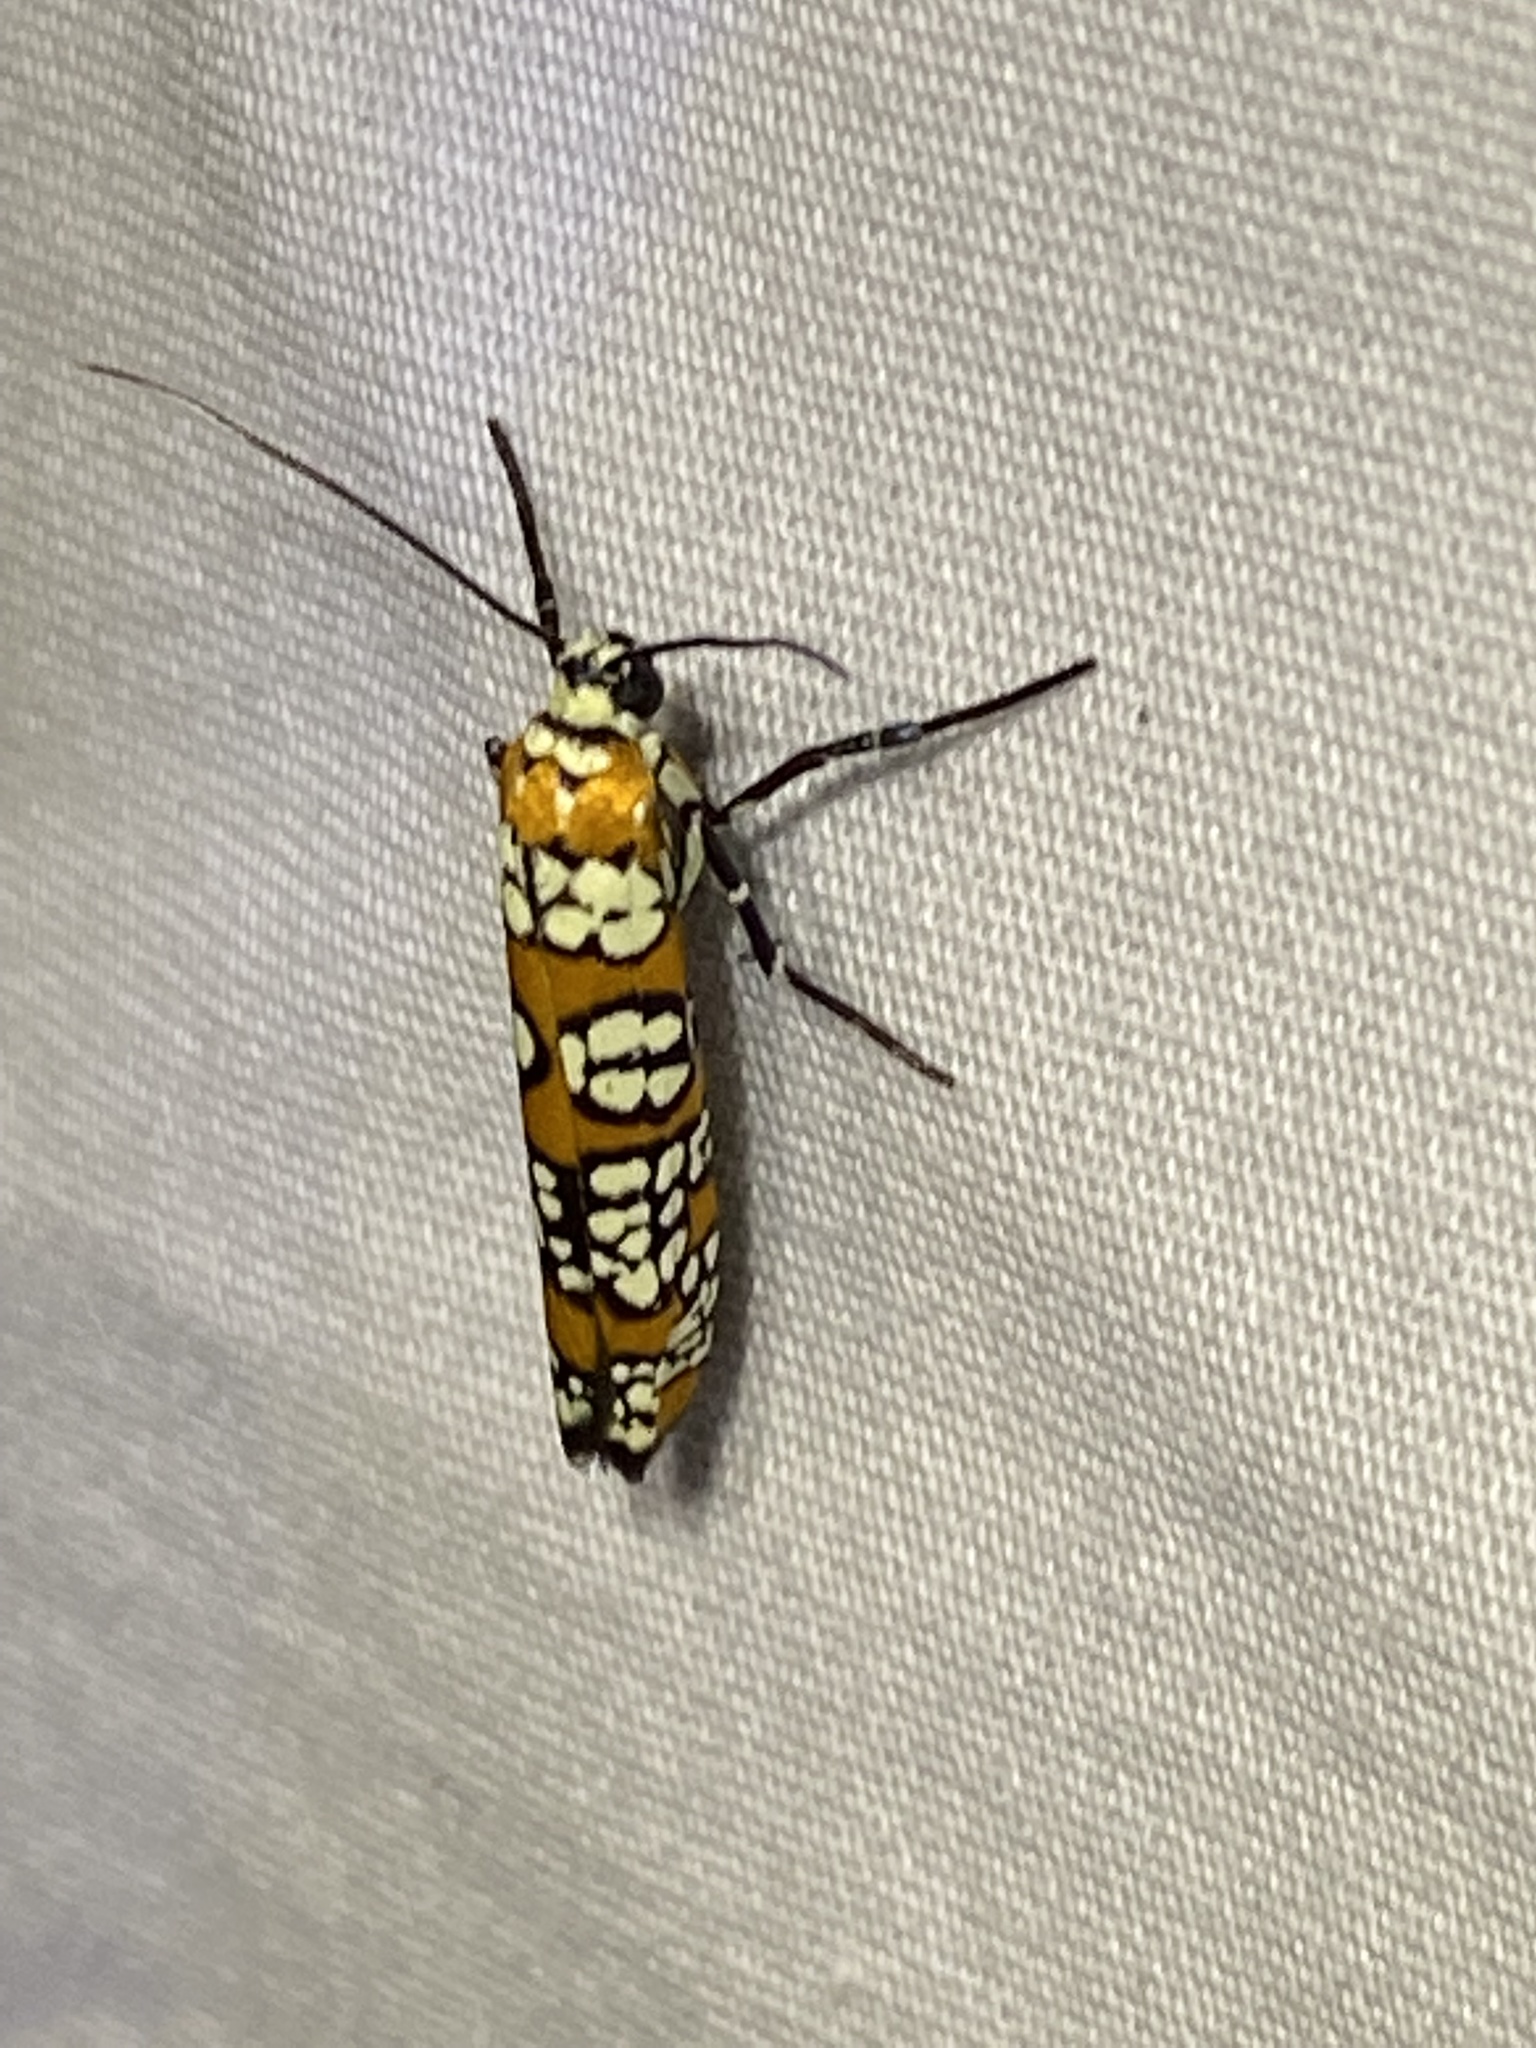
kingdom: Animalia
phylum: Arthropoda
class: Insecta
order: Lepidoptera
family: Attevidae
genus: Atteva
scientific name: Atteva punctella
